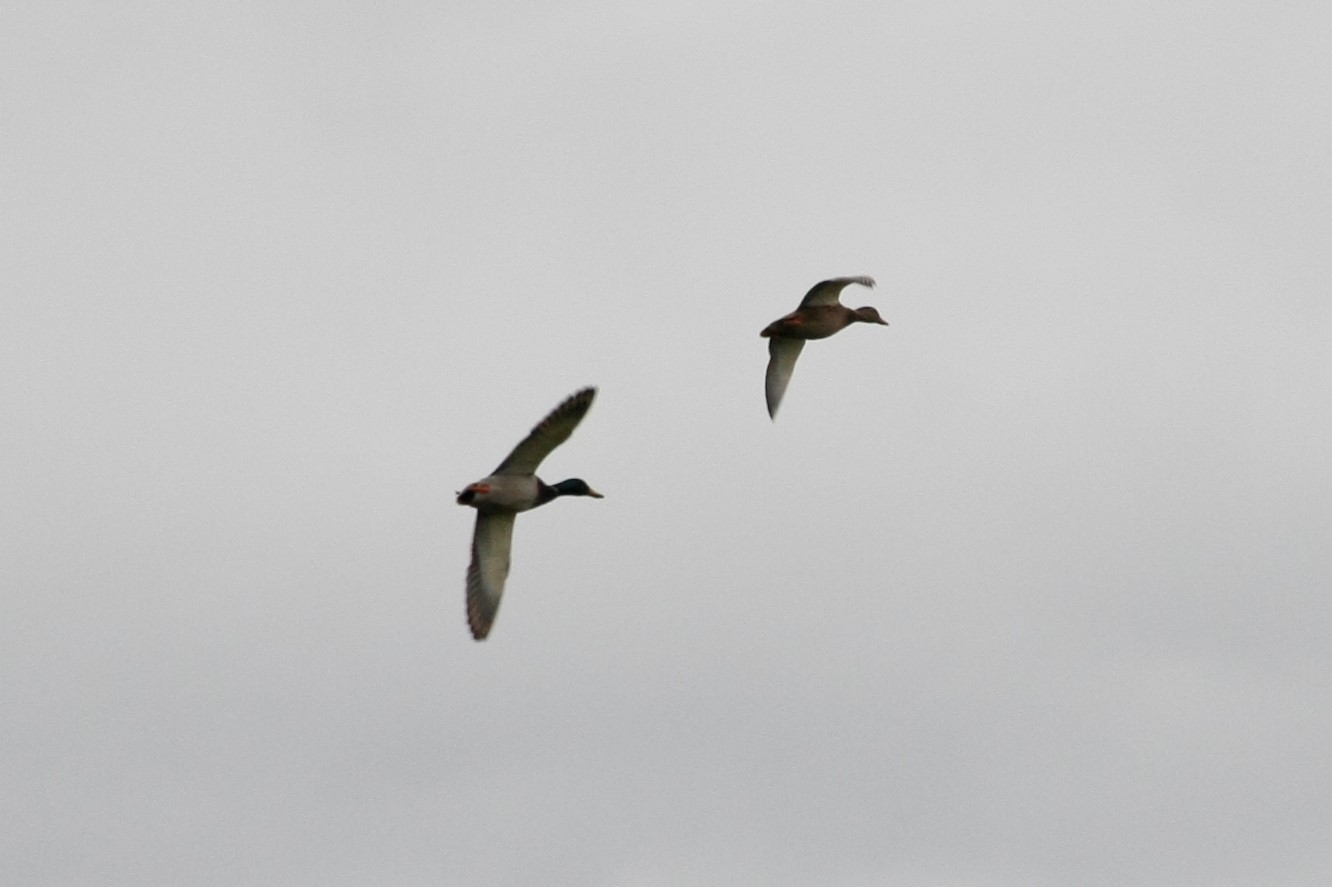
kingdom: Animalia
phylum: Chordata
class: Aves
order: Anseriformes
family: Anatidae
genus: Anas
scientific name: Anas platyrhynchos
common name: Mallard
